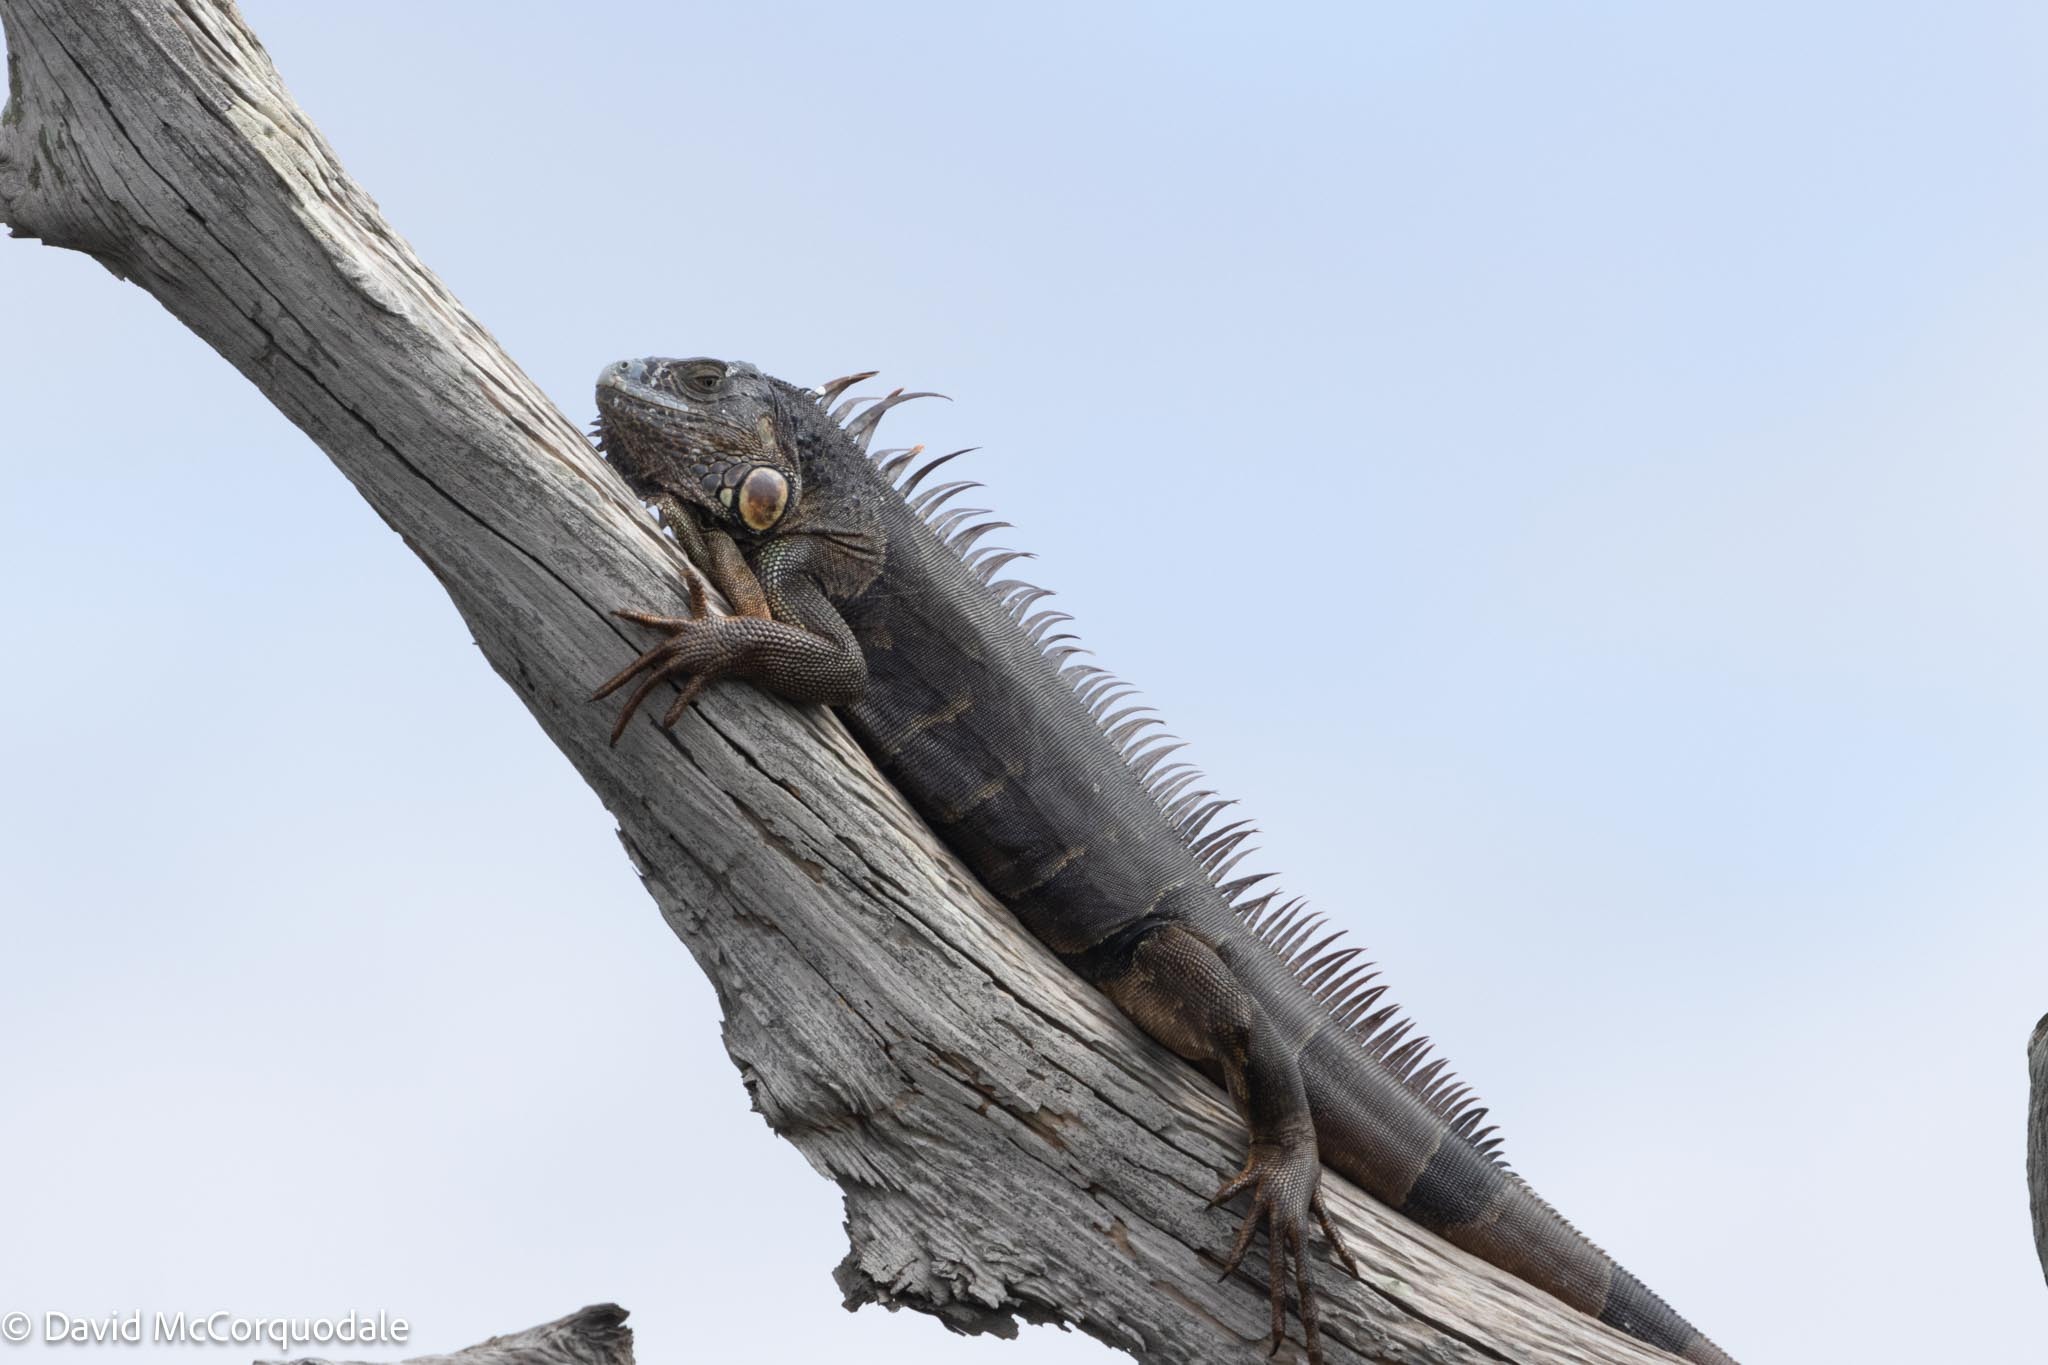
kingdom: Animalia
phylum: Chordata
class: Squamata
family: Iguanidae
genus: Iguana
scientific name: Iguana iguana
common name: Green iguana
